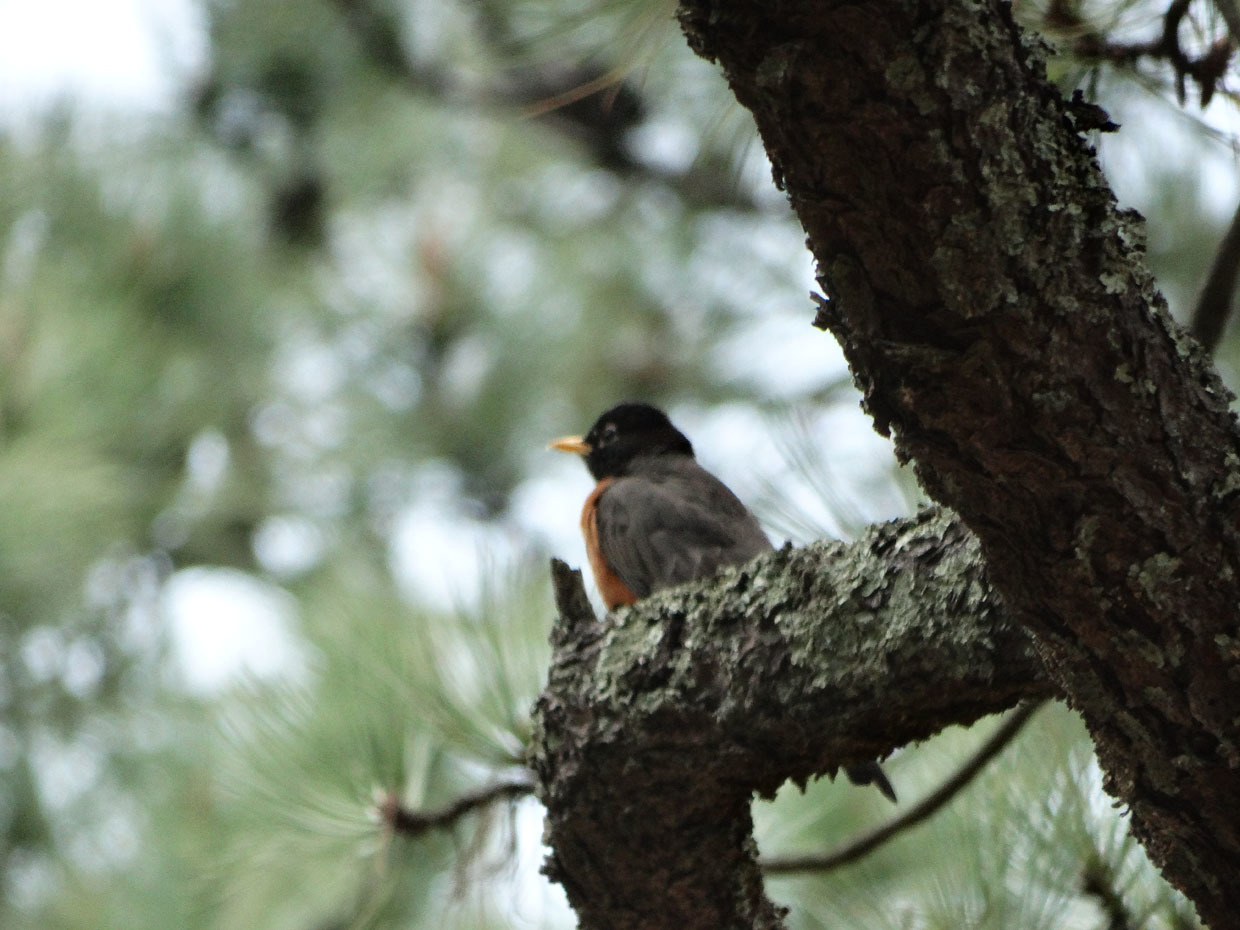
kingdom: Animalia
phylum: Chordata
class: Aves
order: Passeriformes
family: Turdidae
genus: Turdus
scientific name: Turdus migratorius
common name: American robin
